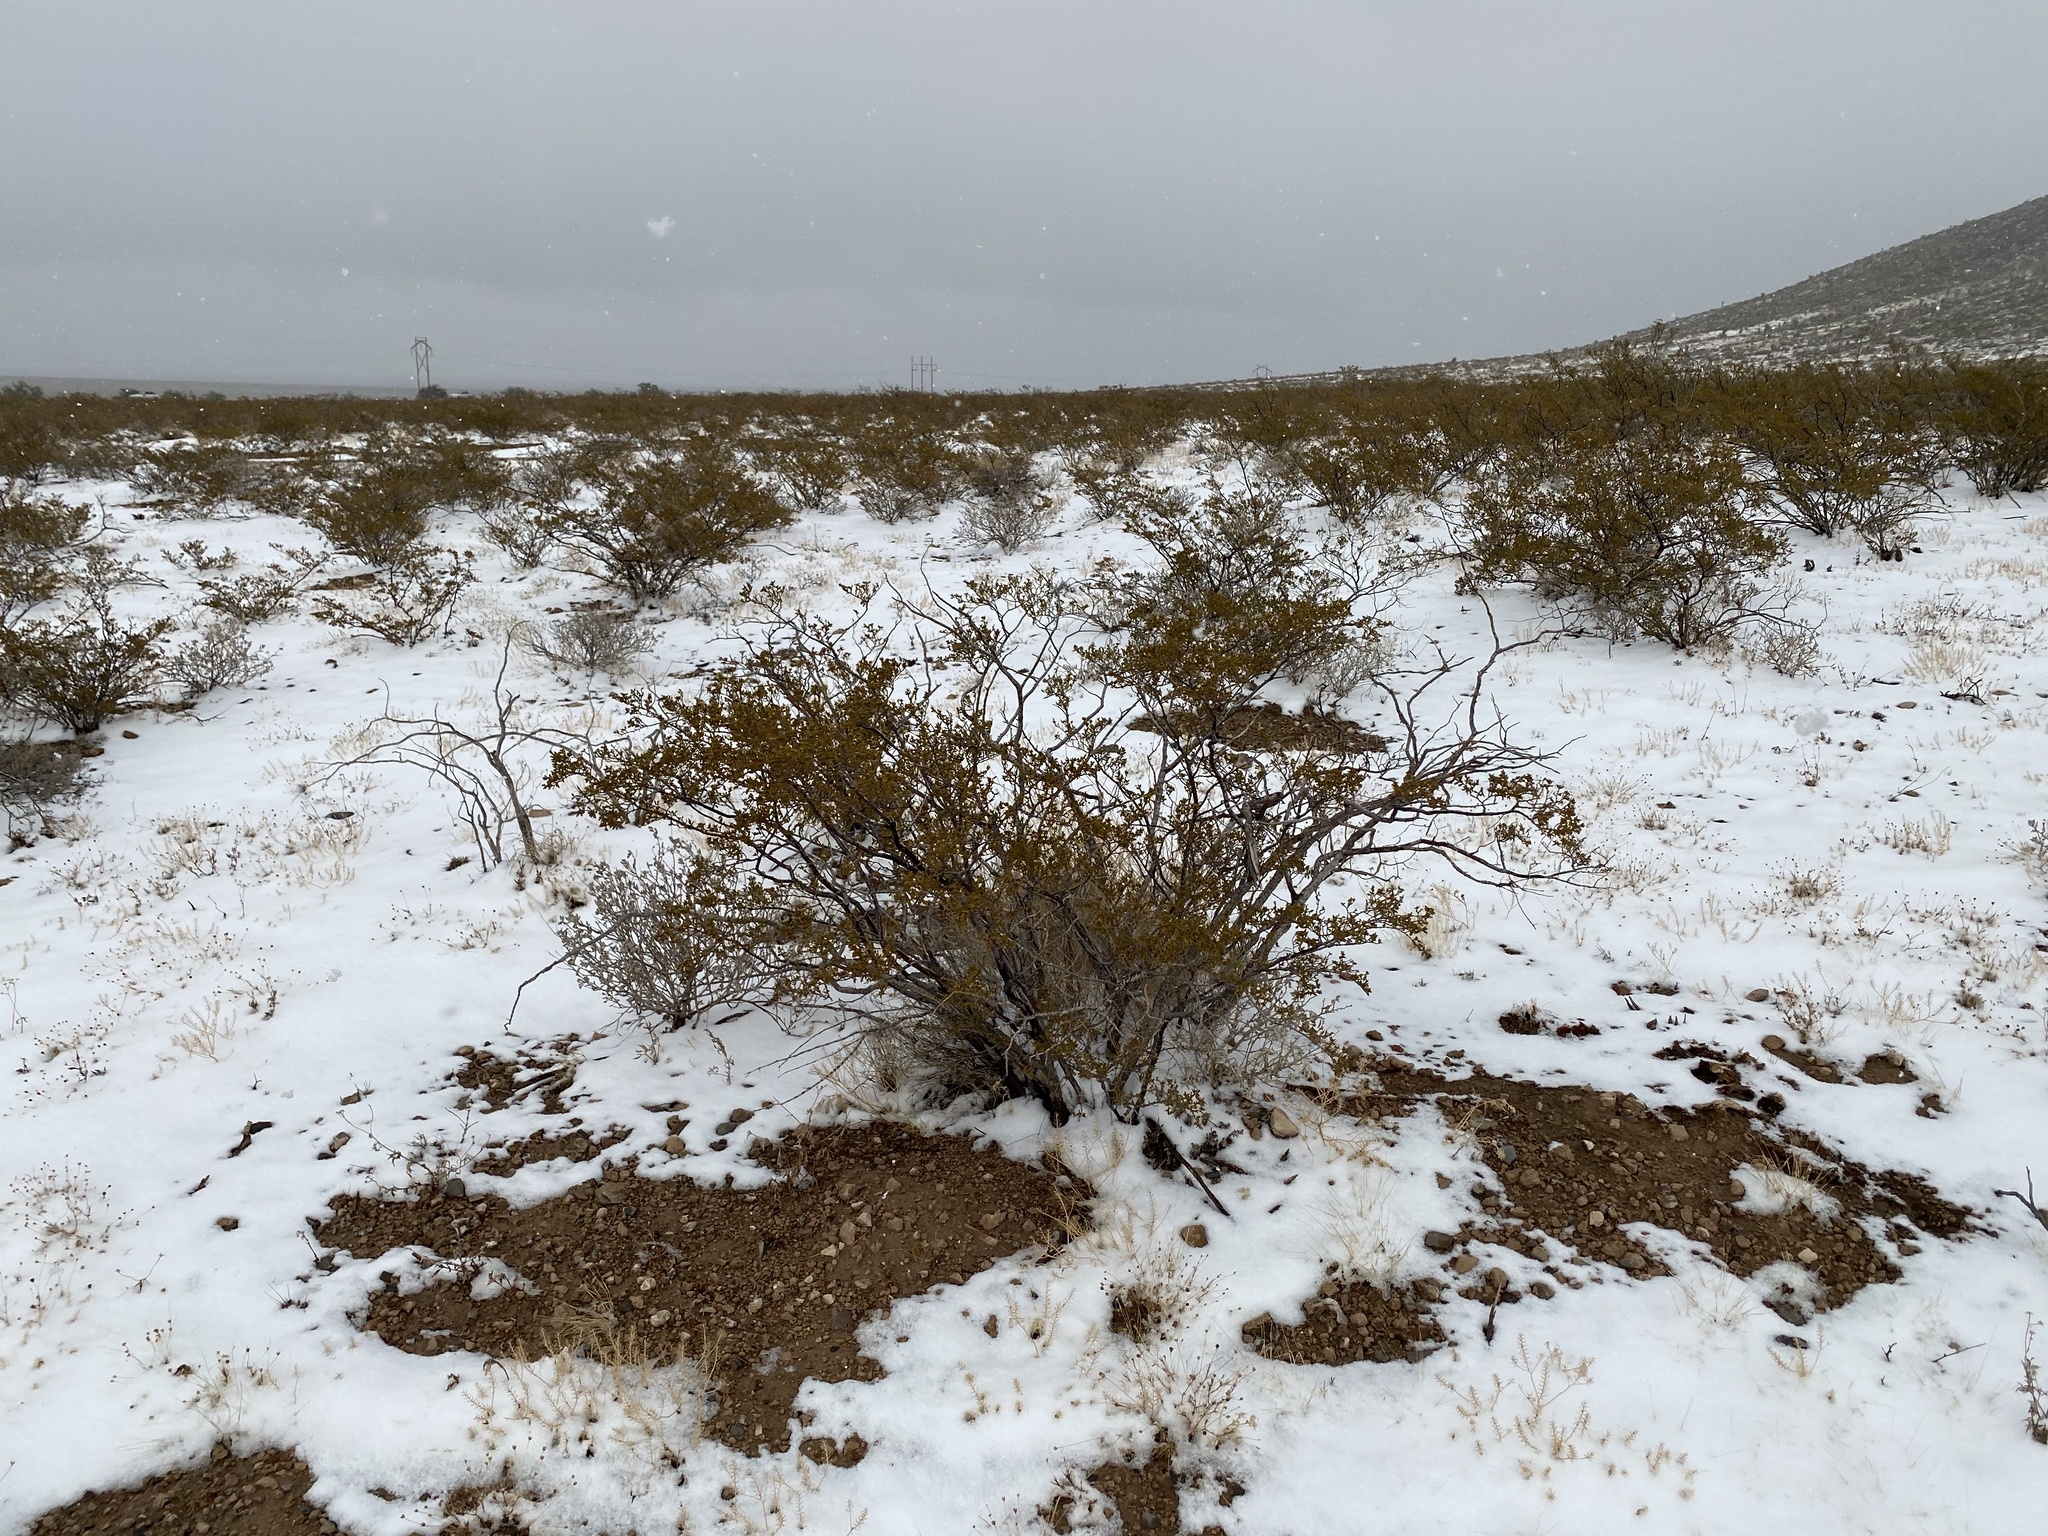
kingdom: Plantae
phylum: Tracheophyta
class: Magnoliopsida
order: Zygophyllales
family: Zygophyllaceae
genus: Larrea
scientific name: Larrea tridentata
